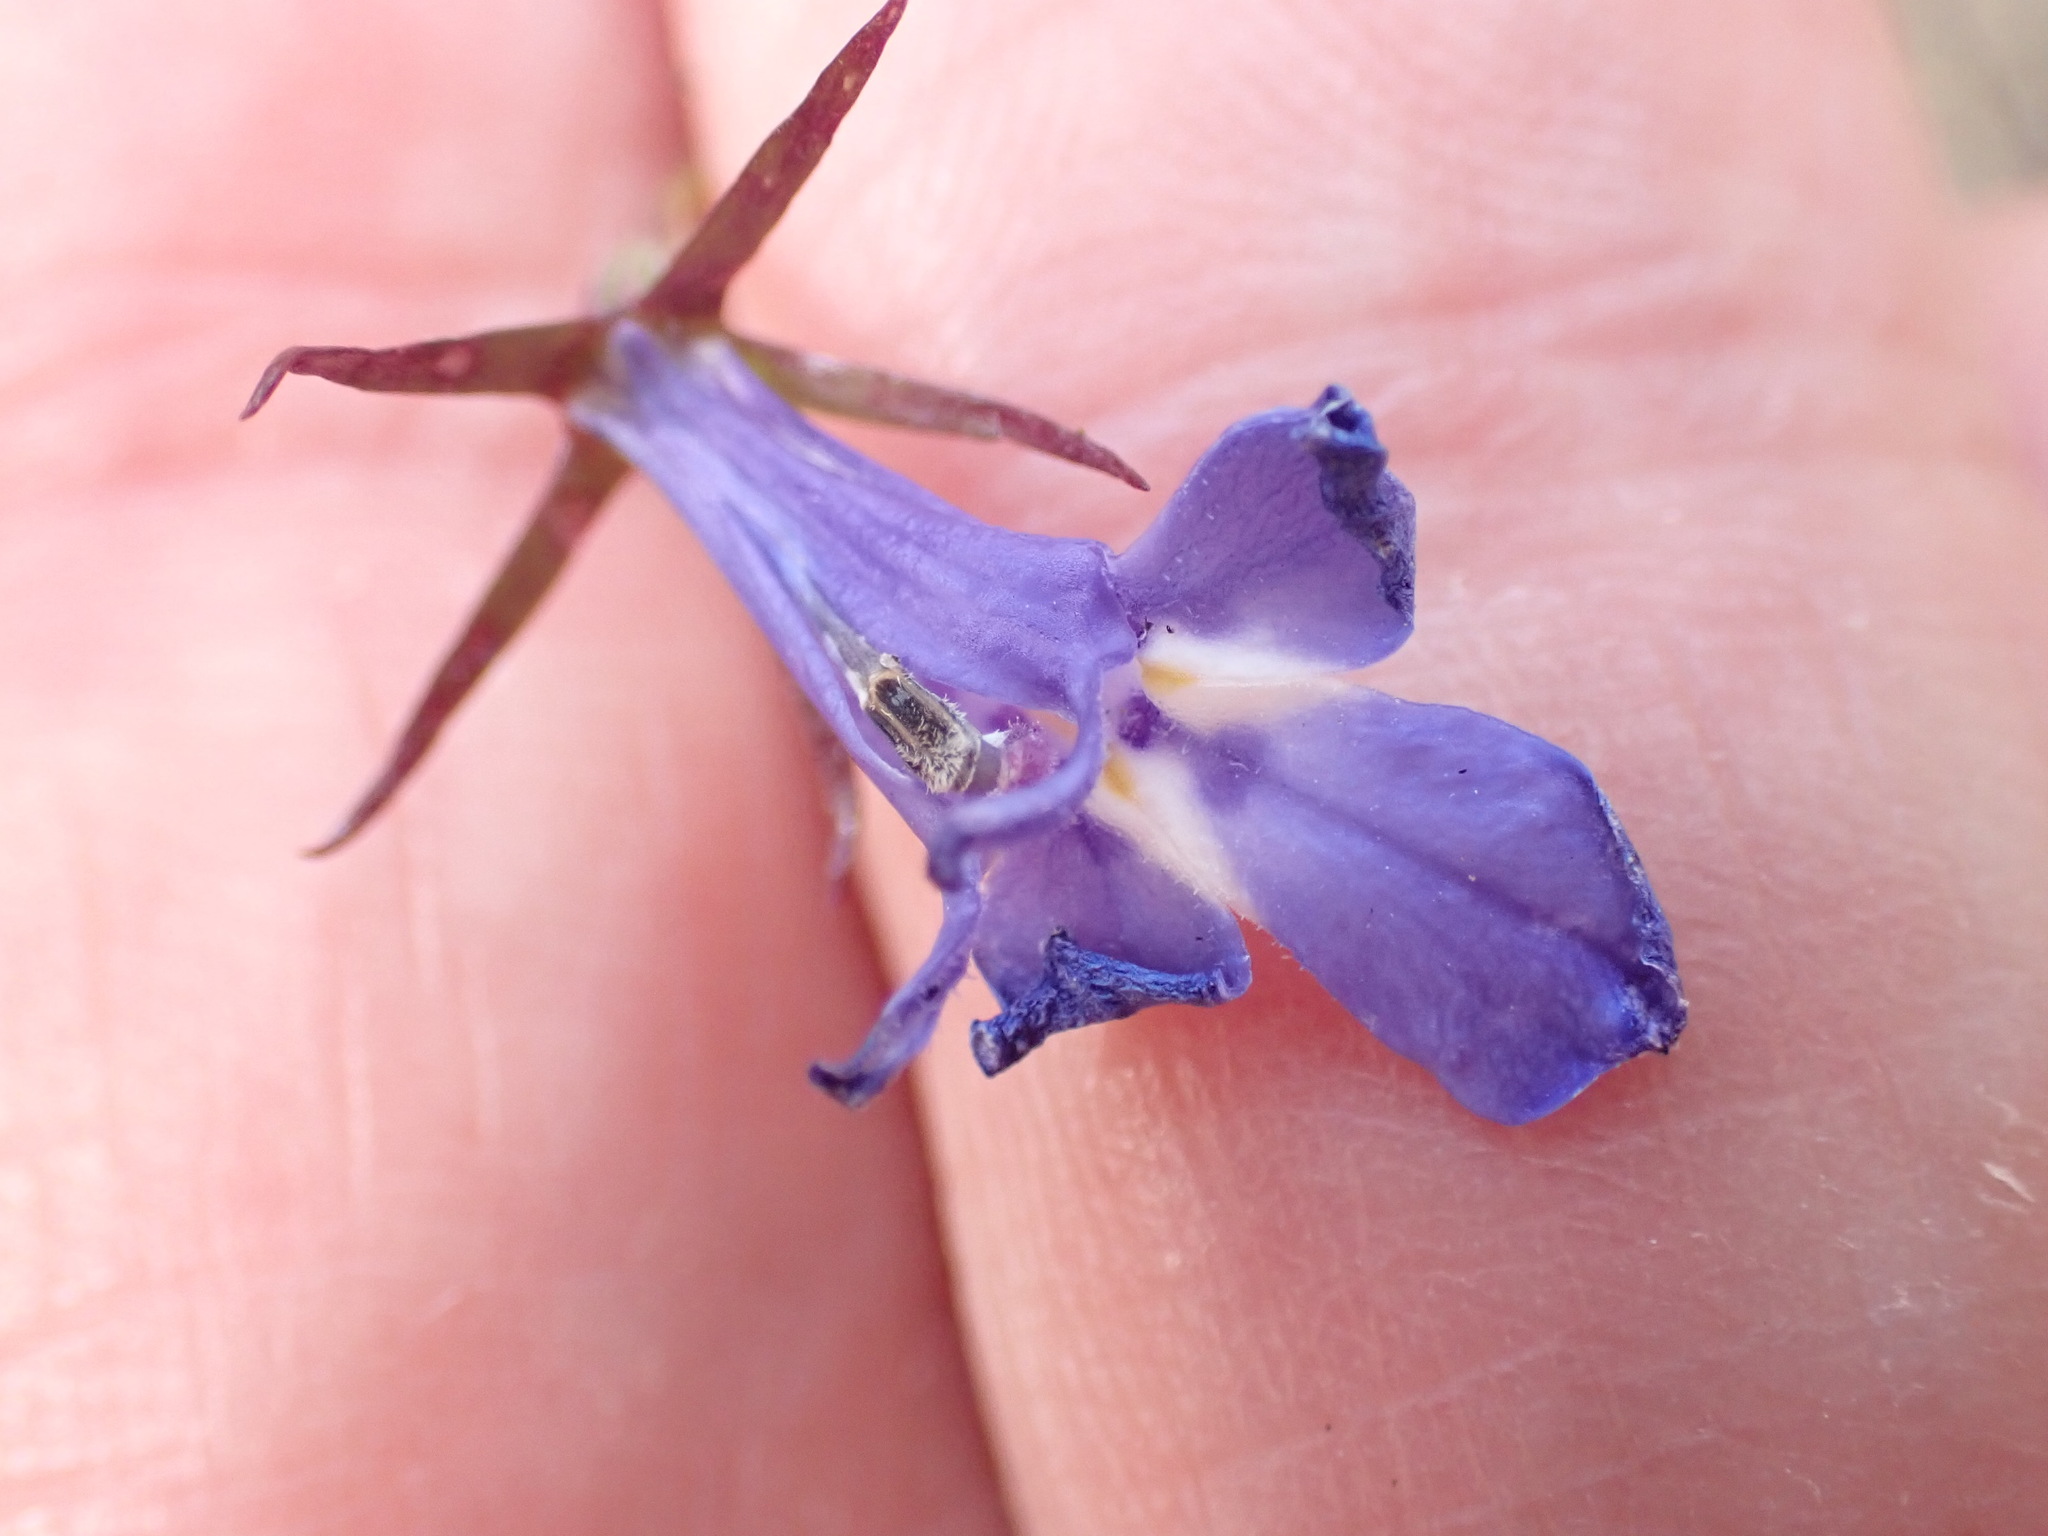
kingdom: Plantae
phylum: Tracheophyta
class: Magnoliopsida
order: Asterales
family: Campanulaceae
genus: Lobelia
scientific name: Lobelia erinus
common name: Edging lobelia
